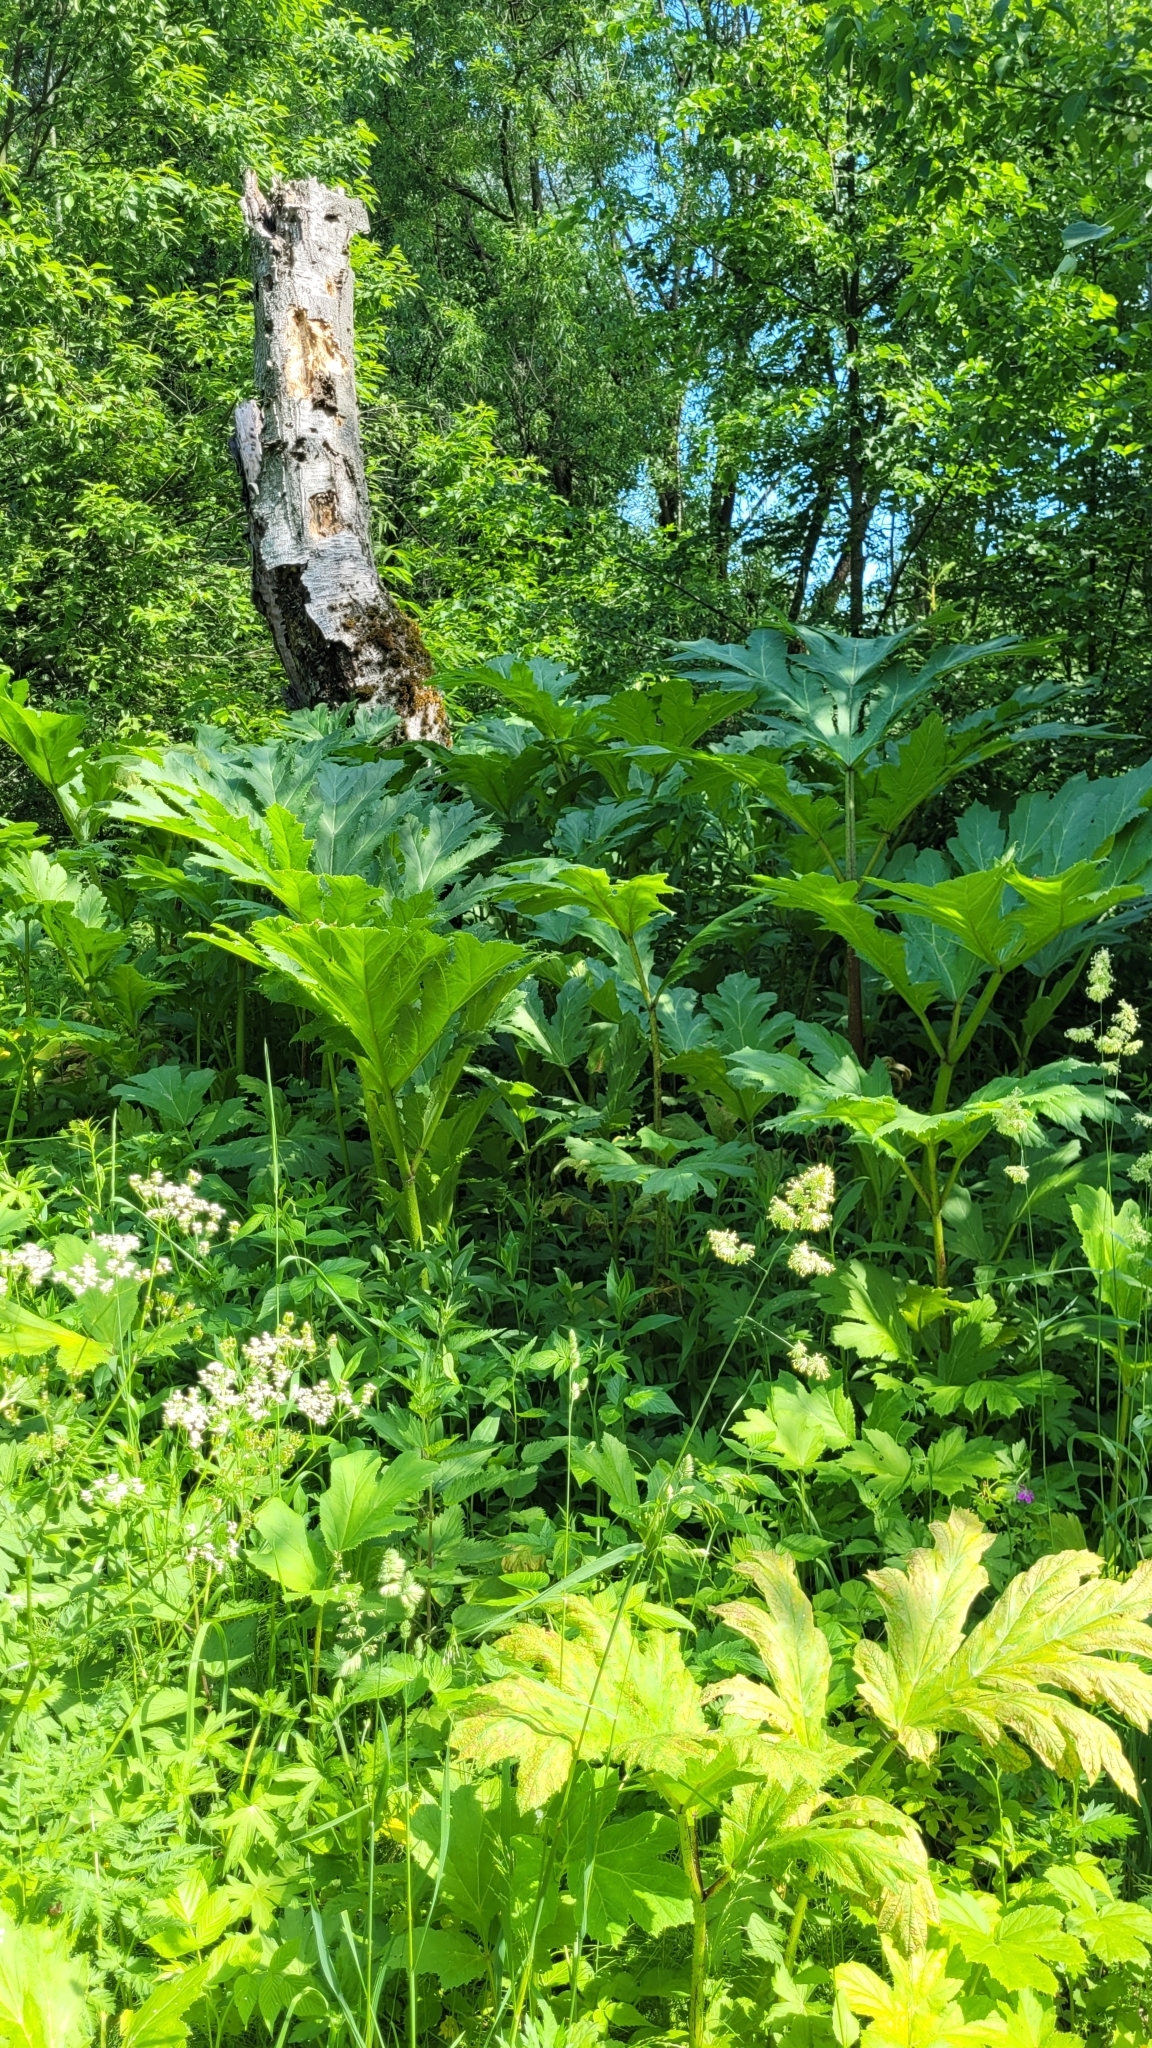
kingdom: Plantae
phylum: Tracheophyta
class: Magnoliopsida
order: Apiales
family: Apiaceae
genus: Heracleum
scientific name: Heracleum sosnowskyi
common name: Sosnowsky's hogweed
